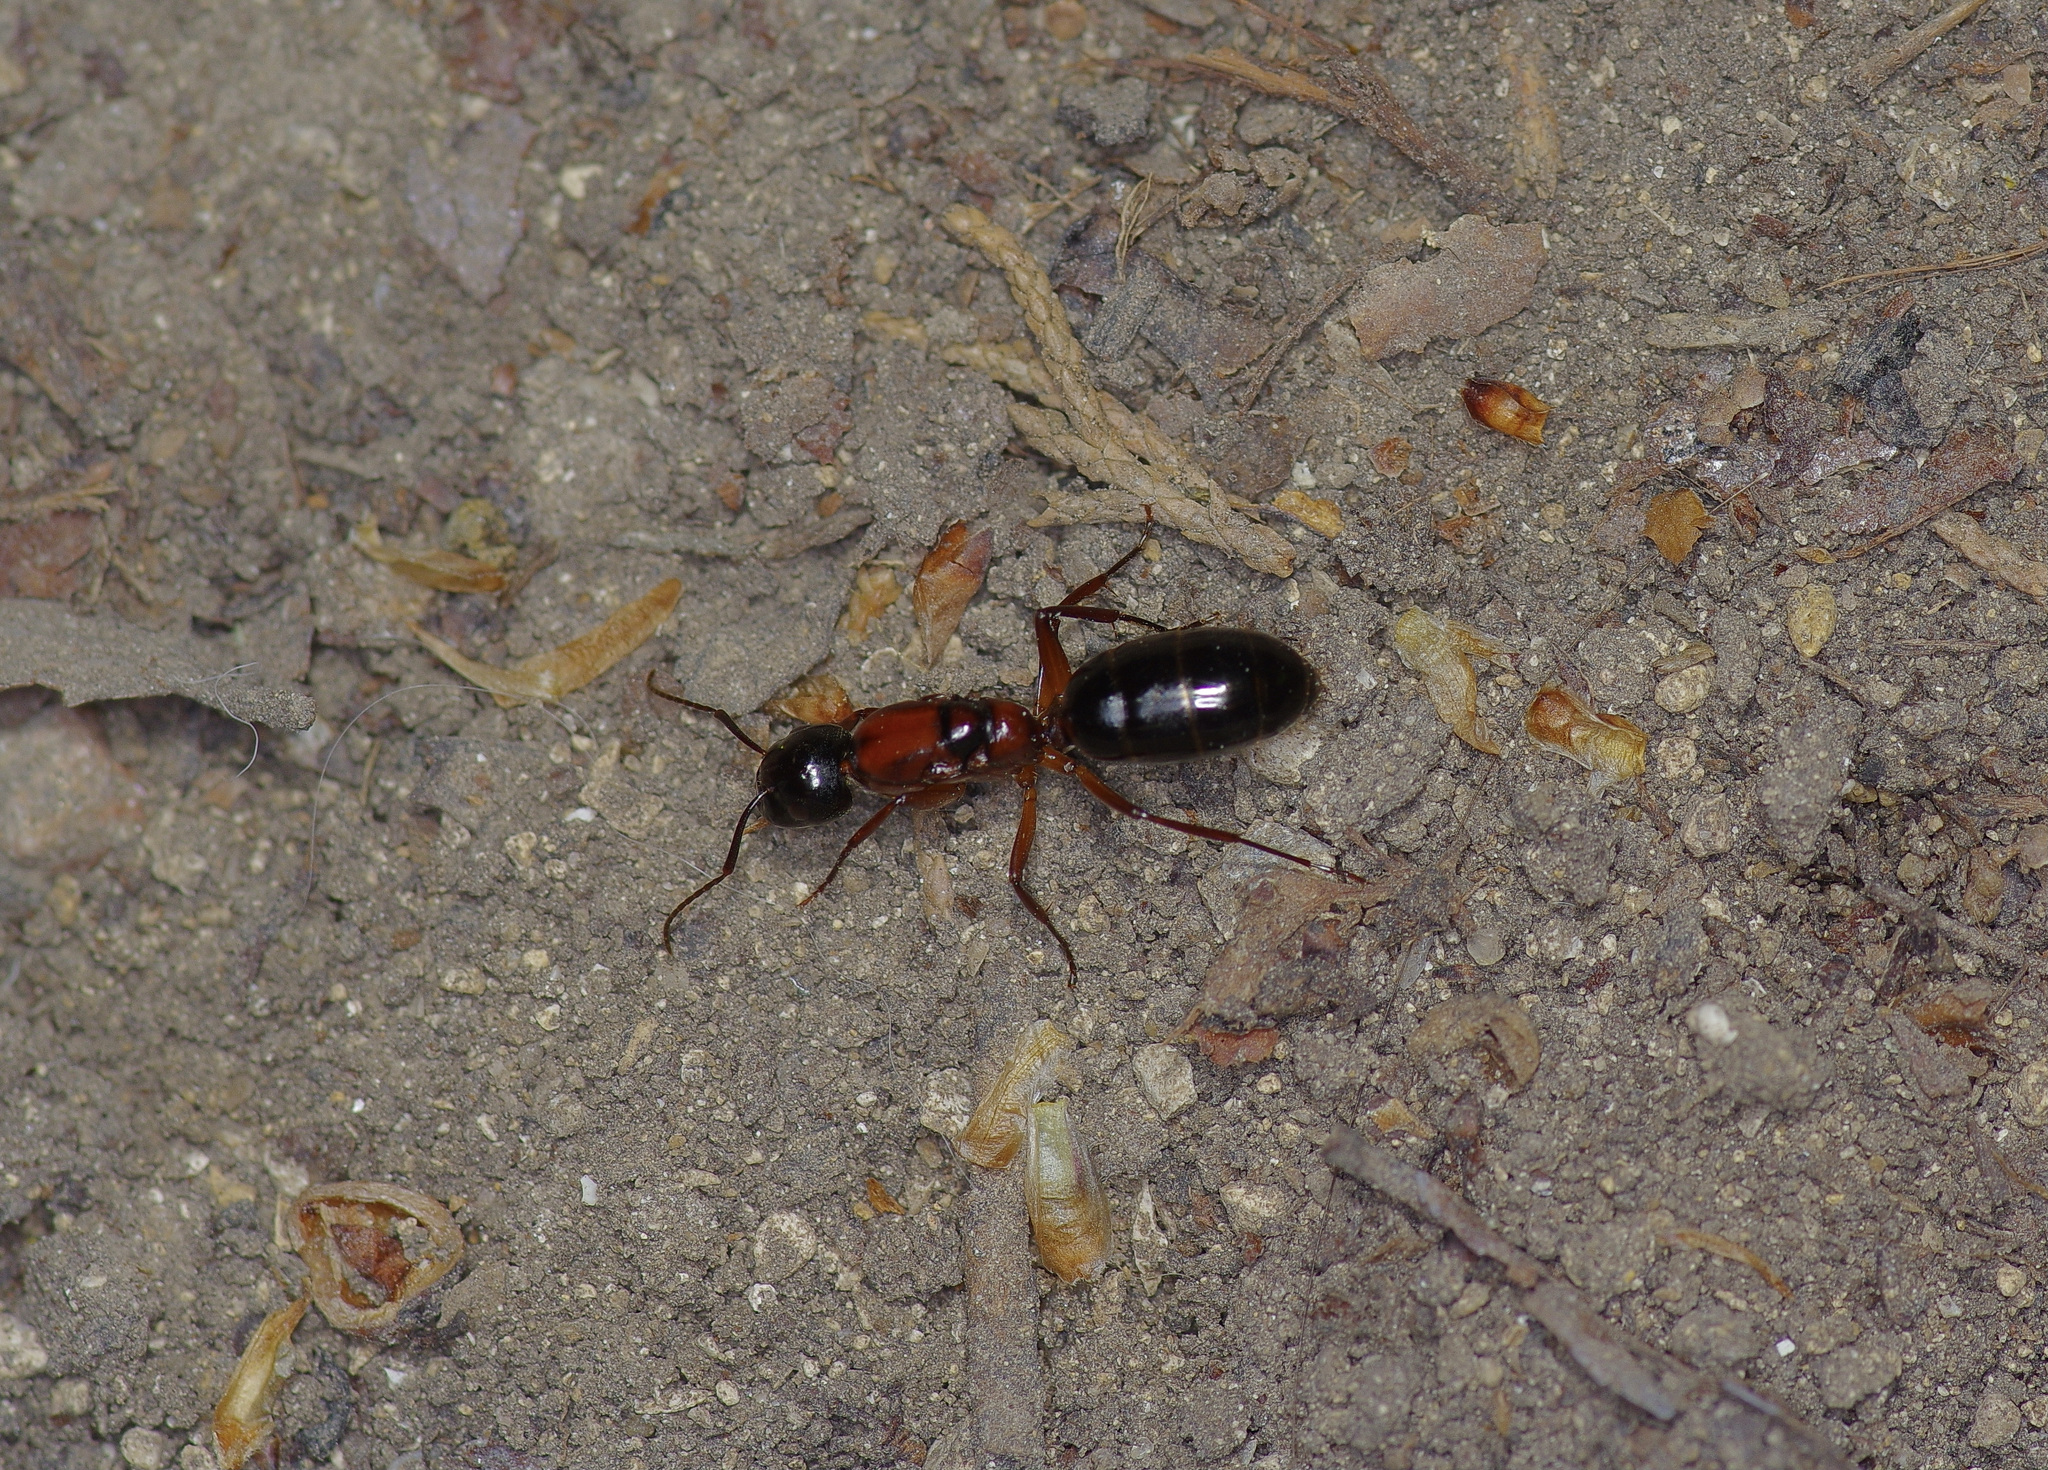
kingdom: Animalia
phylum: Arthropoda
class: Insecta
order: Hymenoptera
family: Formicidae
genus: Camponotus
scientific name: Camponotus texanus
